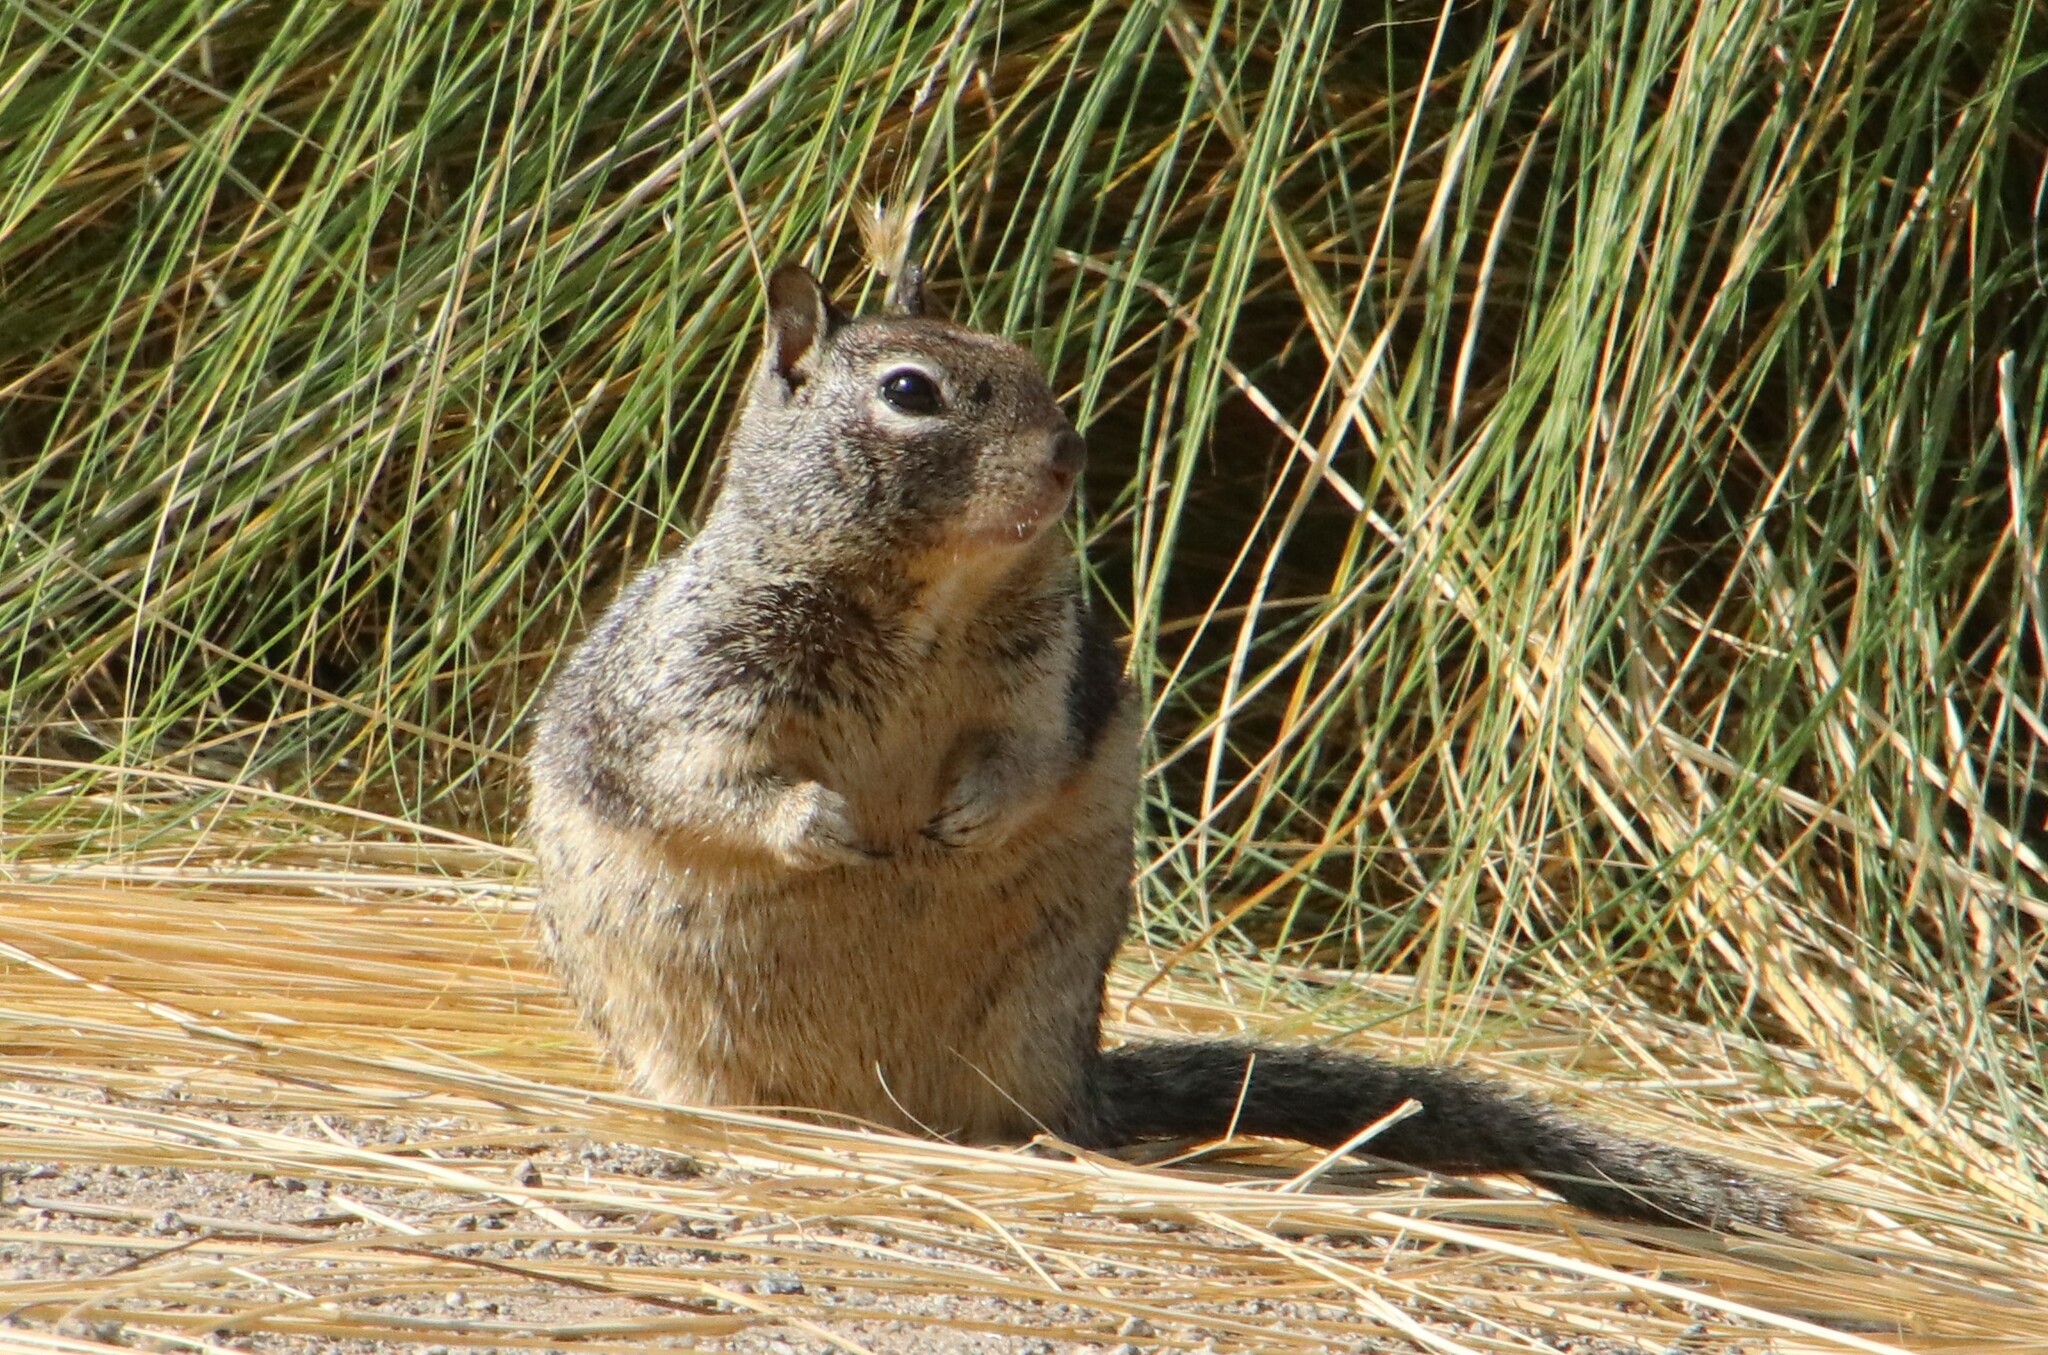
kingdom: Animalia
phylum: Chordata
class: Mammalia
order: Rodentia
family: Sciuridae
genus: Otospermophilus
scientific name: Otospermophilus beecheyi
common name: California ground squirrel
